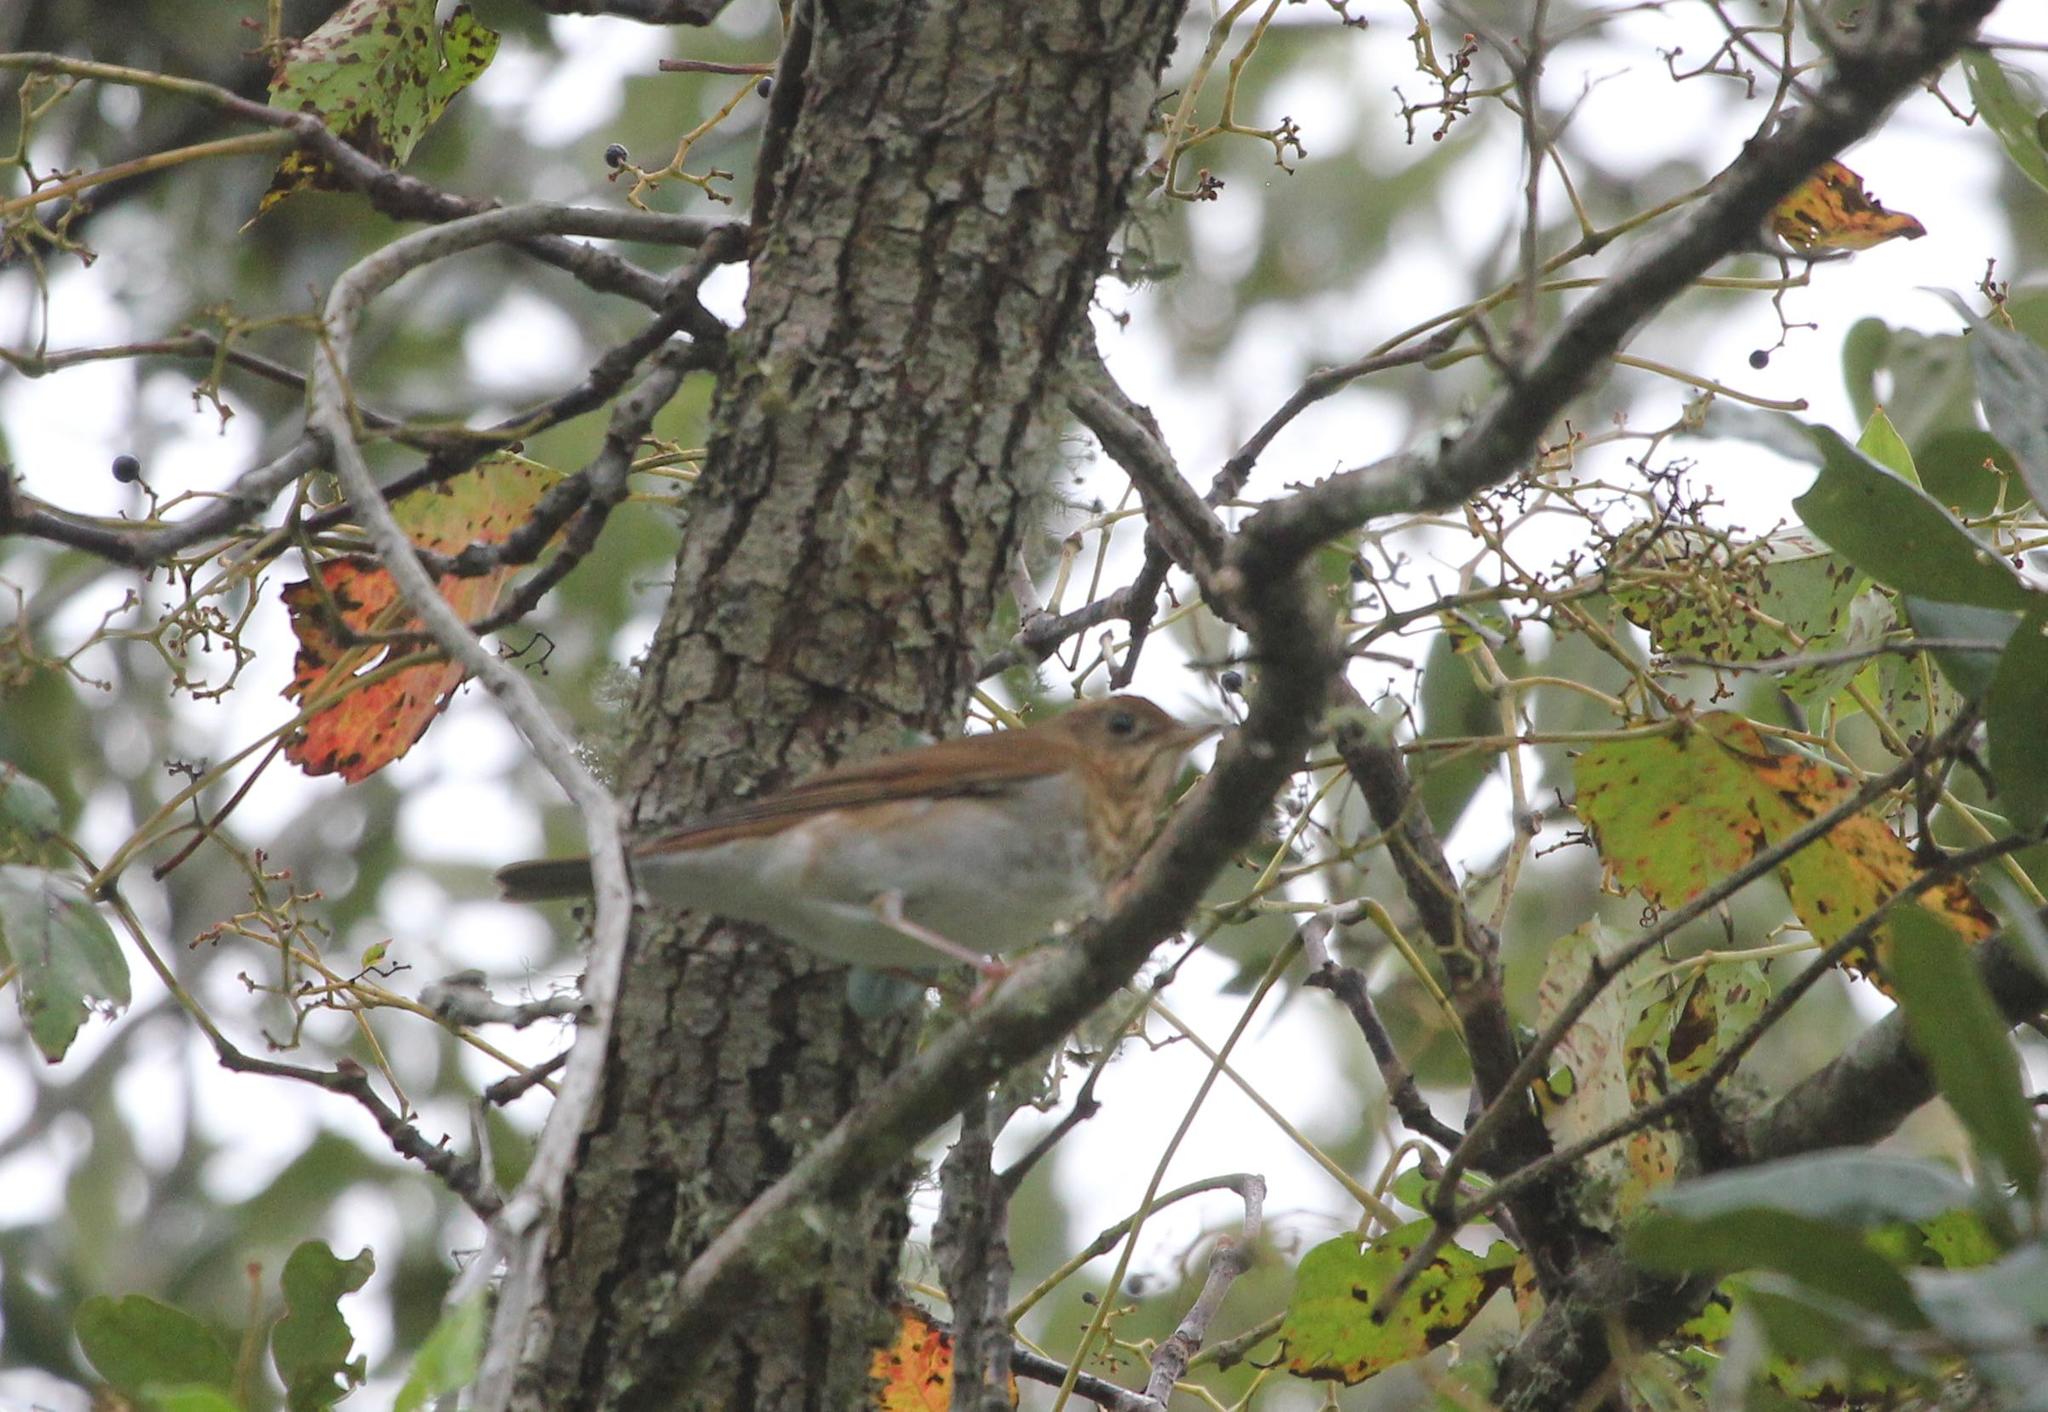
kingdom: Animalia
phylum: Chordata
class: Aves
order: Passeriformes
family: Turdidae
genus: Catharus
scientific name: Catharus fuscescens
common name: Veery
